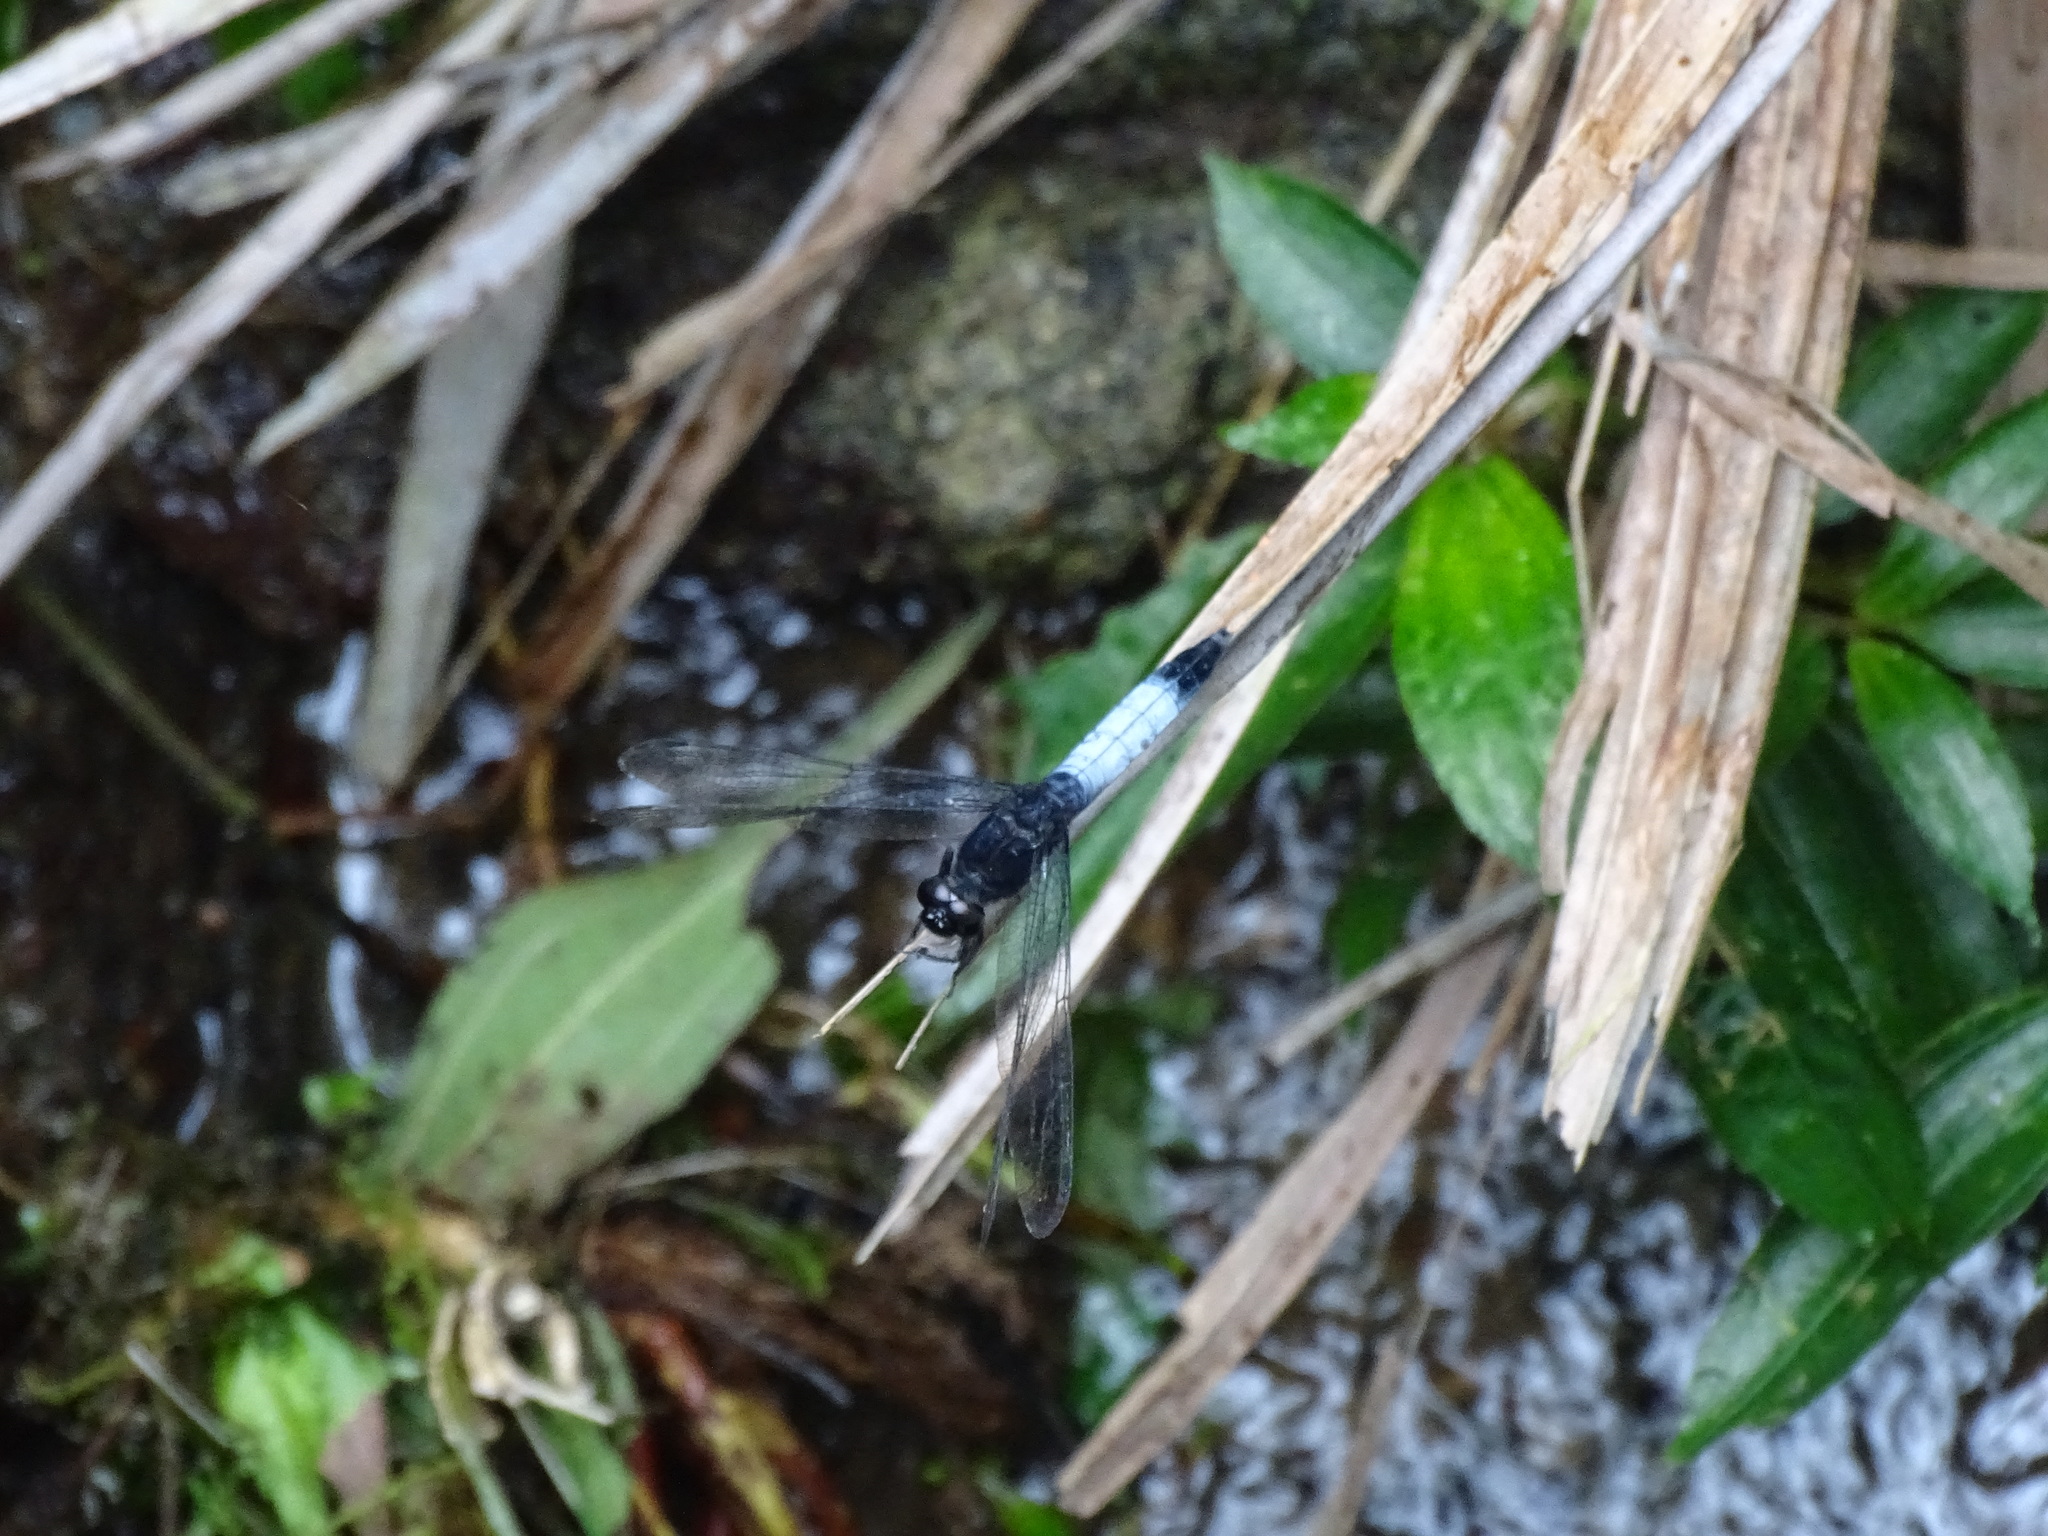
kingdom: Animalia
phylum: Arthropoda
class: Insecta
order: Odonata
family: Libellulidae
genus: Orthetrum
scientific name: Orthetrum triangulare
